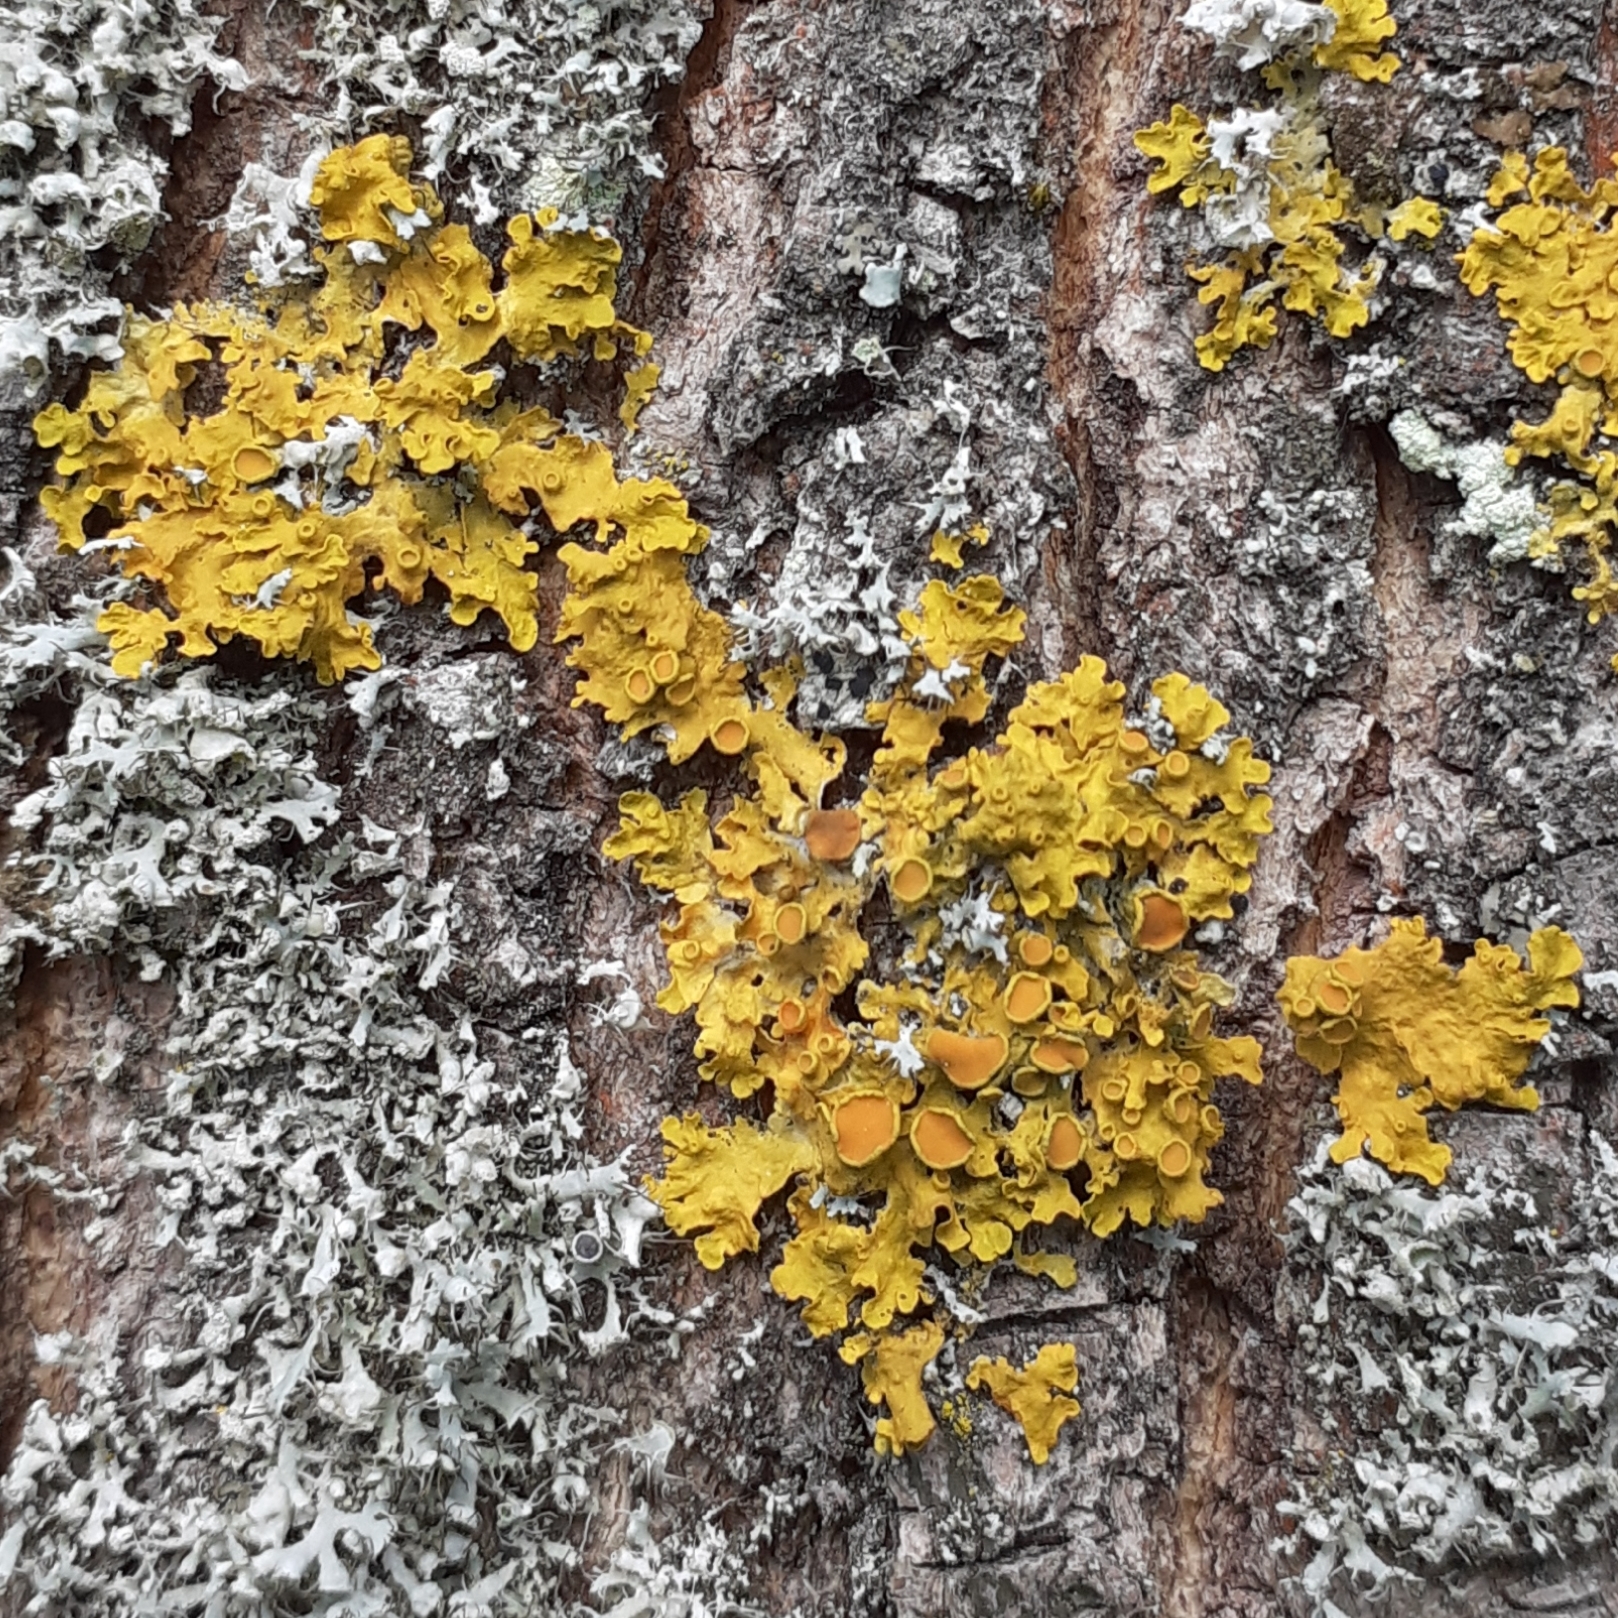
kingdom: Fungi
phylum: Ascomycota
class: Lecanoromycetes
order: Teloschistales
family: Teloschistaceae
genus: Xanthoria
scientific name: Xanthoria parietina
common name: Common orange lichen
